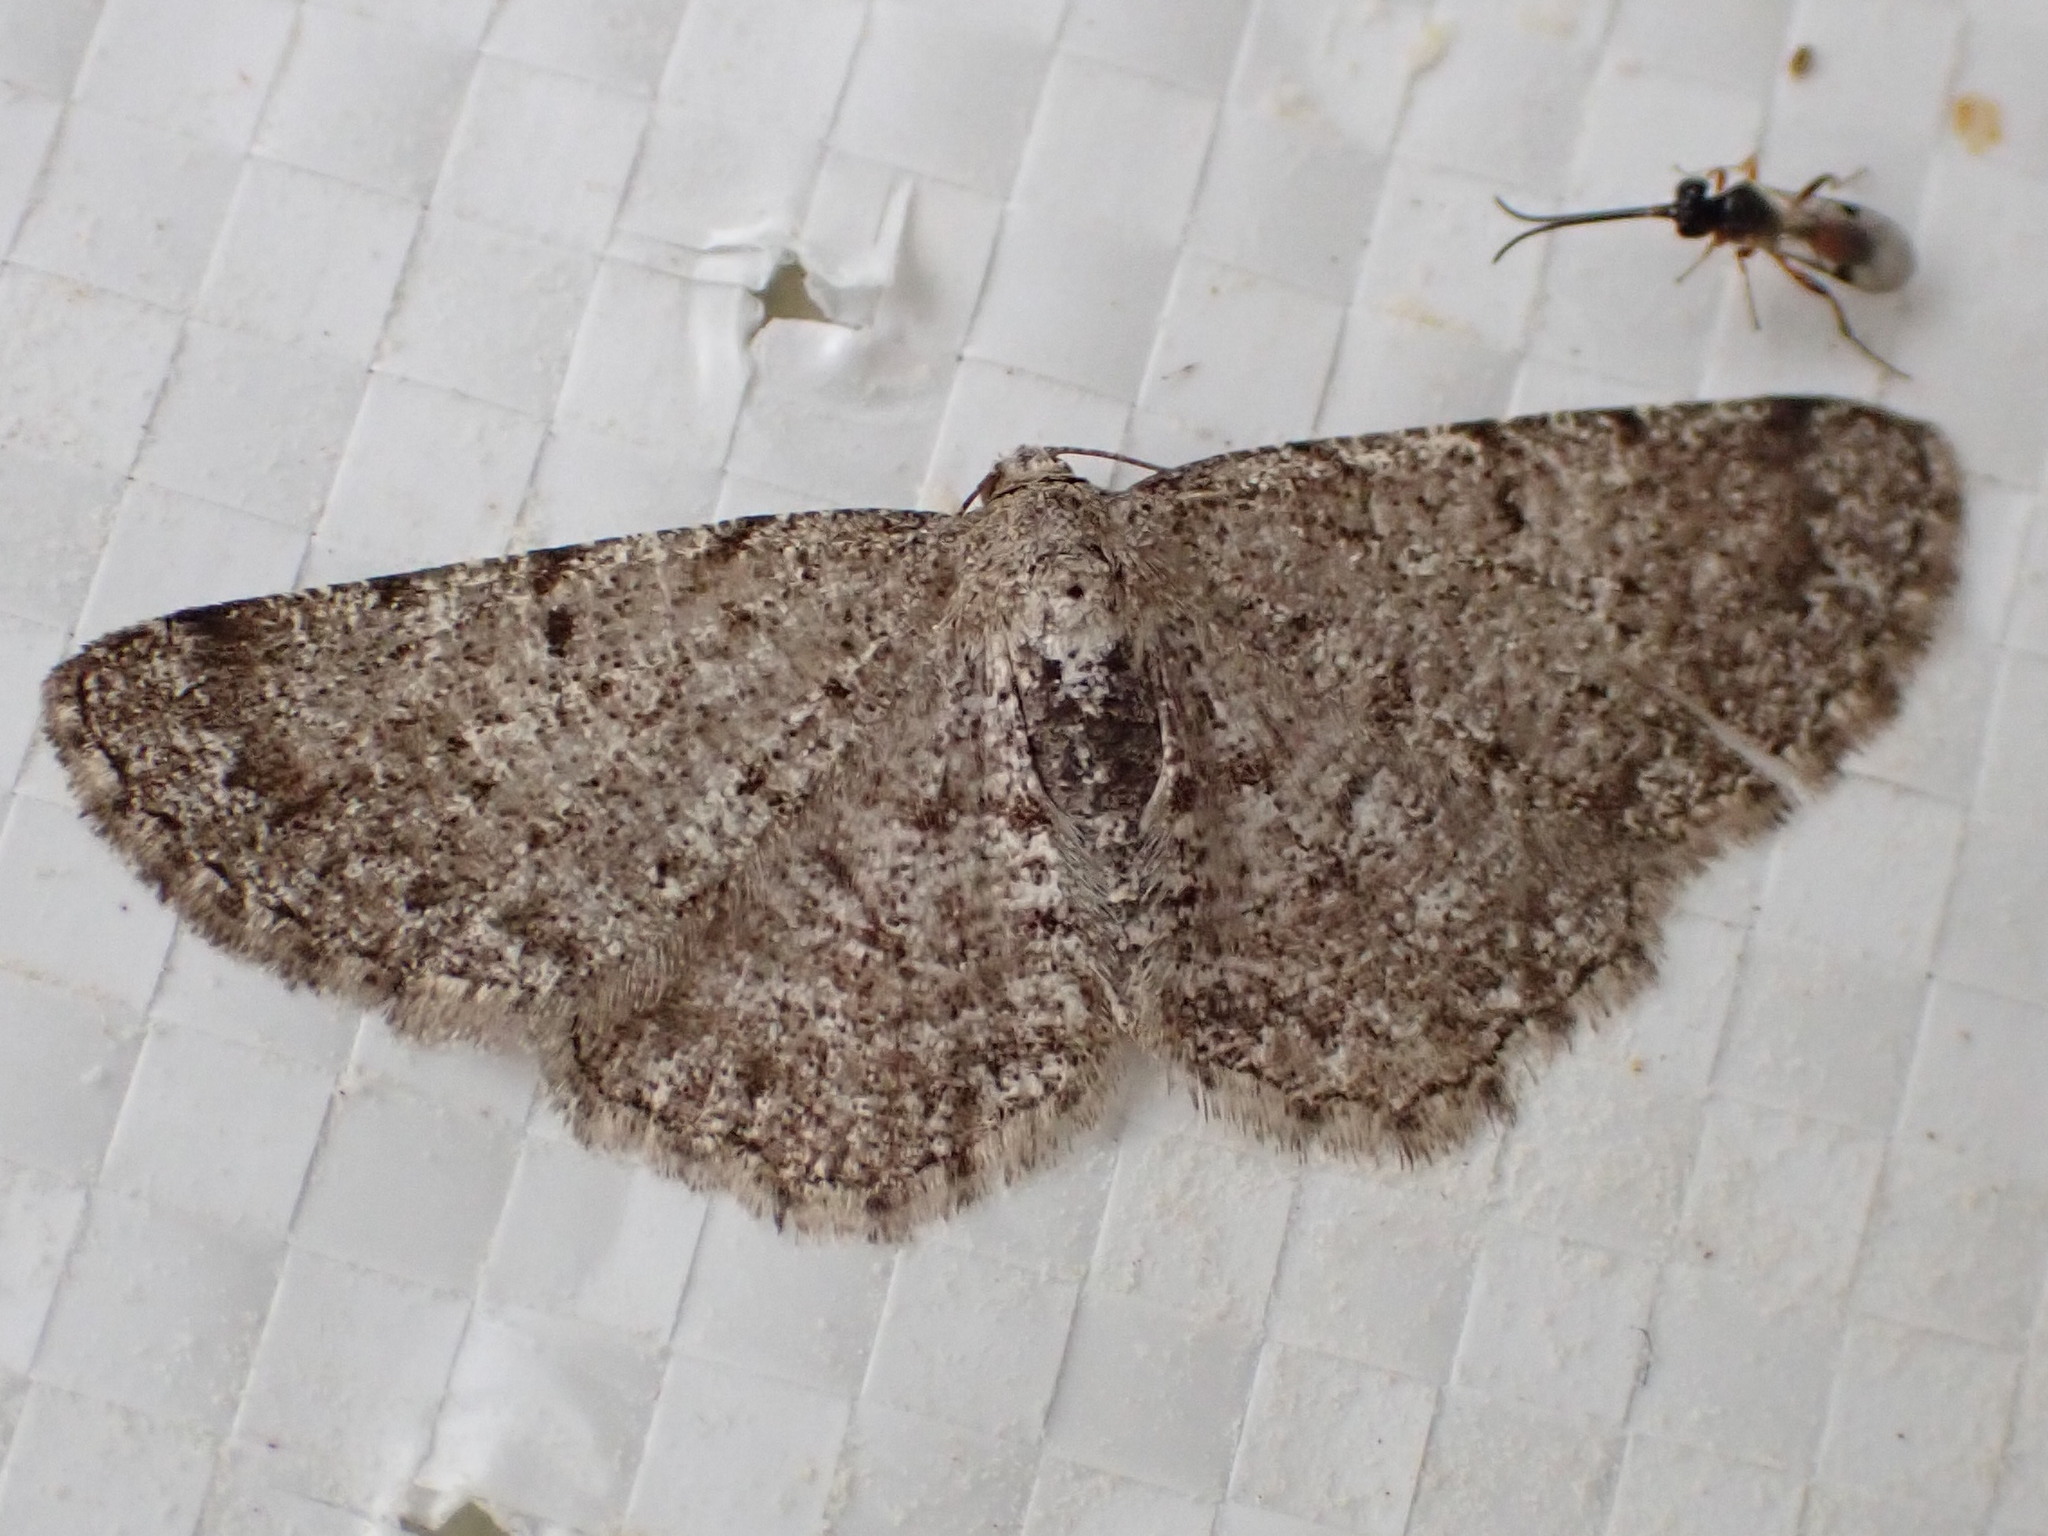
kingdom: Animalia
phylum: Arthropoda
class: Insecta
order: Lepidoptera
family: Geometridae
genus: Aethalura
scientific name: Aethalura intertexta
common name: Four-barred gray
